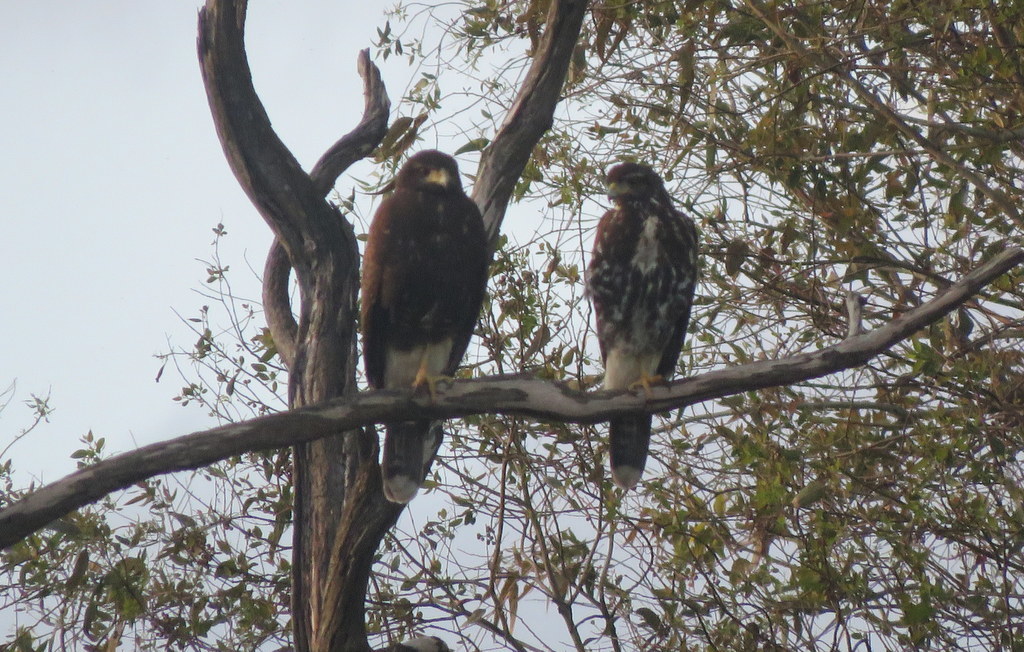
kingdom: Animalia
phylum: Chordata
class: Aves
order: Accipitriformes
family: Accipitridae
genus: Parabuteo
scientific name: Parabuteo unicinctus
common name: Harris's hawk
